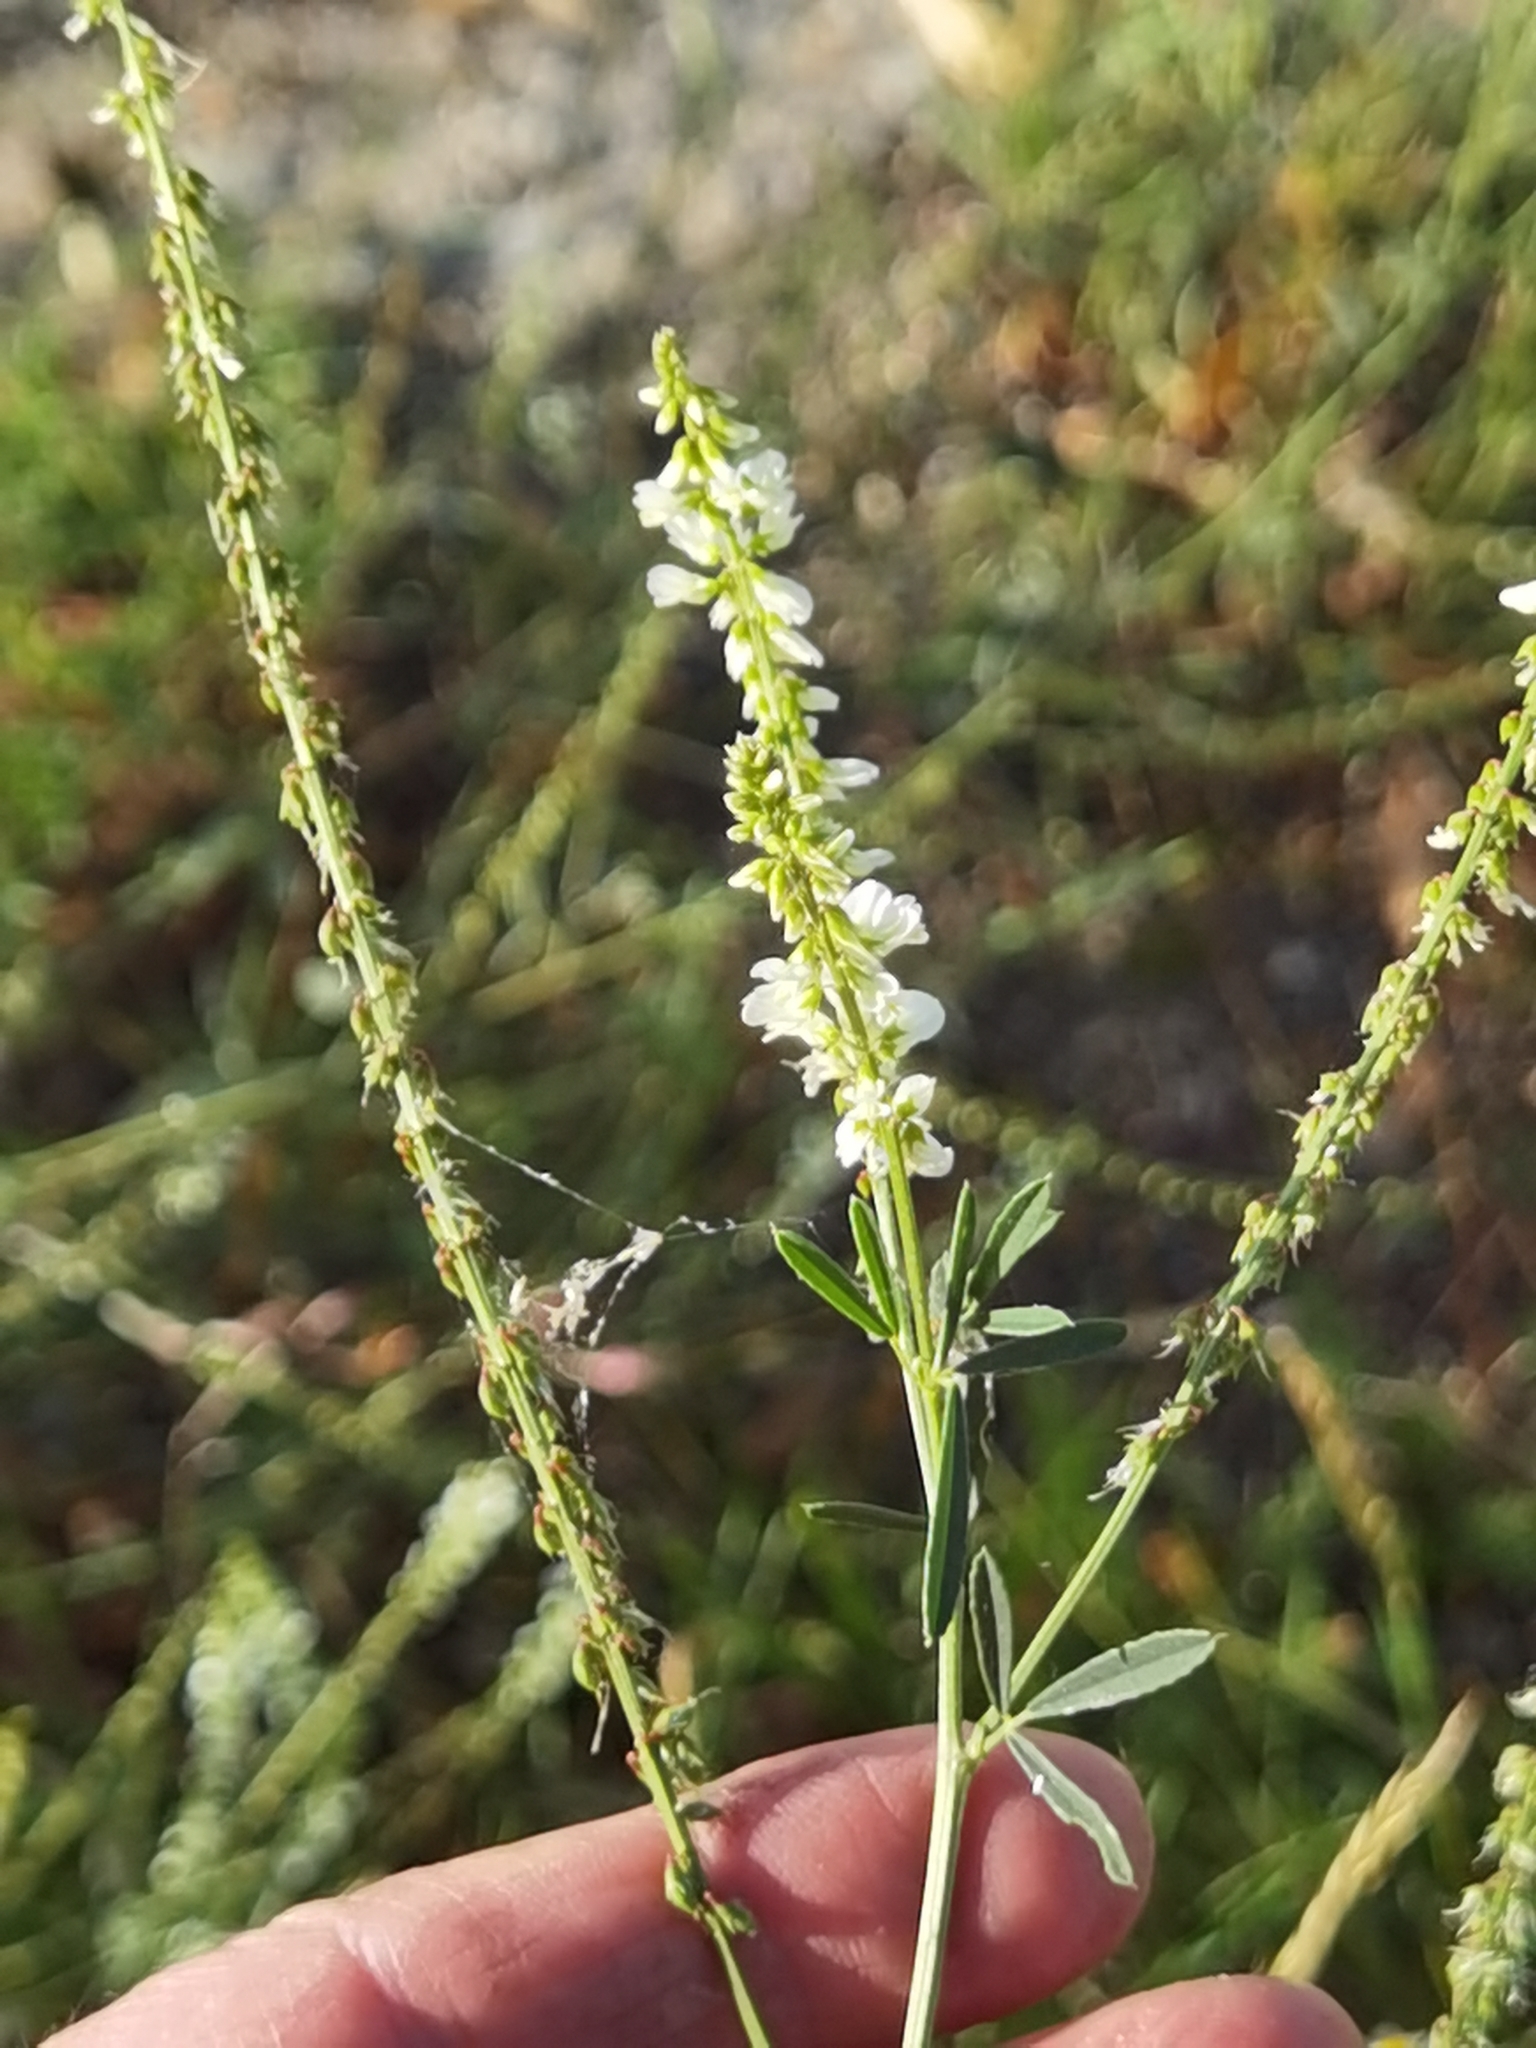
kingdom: Plantae
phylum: Tracheophyta
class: Magnoliopsida
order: Fabales
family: Fabaceae
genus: Melilotus
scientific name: Melilotus albus
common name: White melilot
